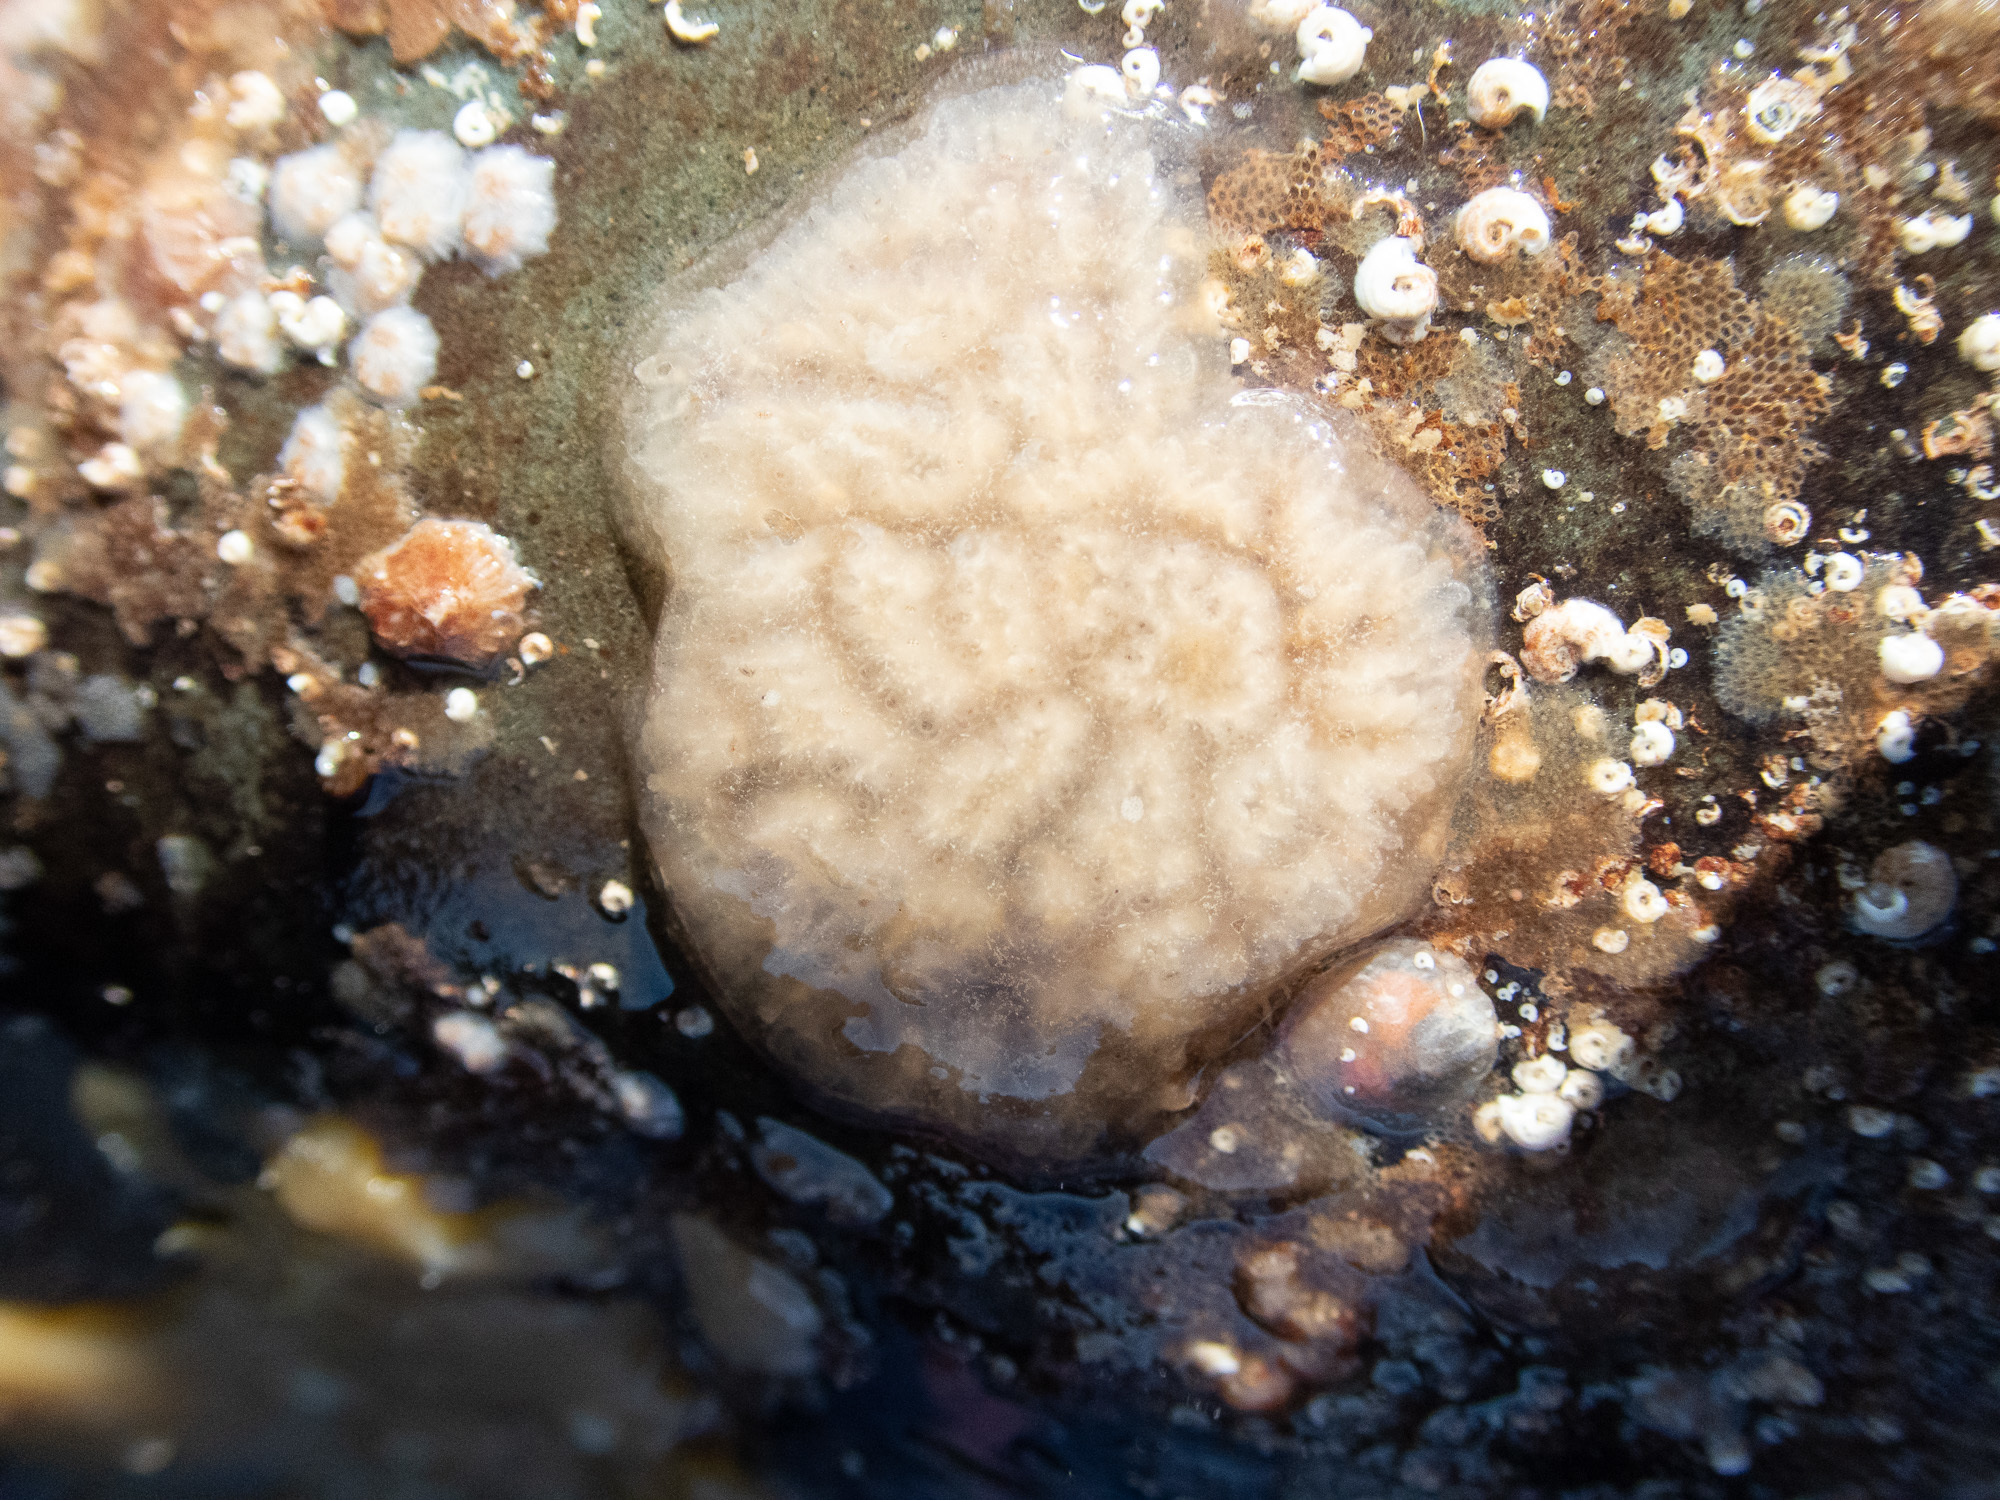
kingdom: Animalia
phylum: Chordata
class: Ascidiacea
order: Stolidobranchia
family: Styelidae
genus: Botrylloides
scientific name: Botrylloides leachii
